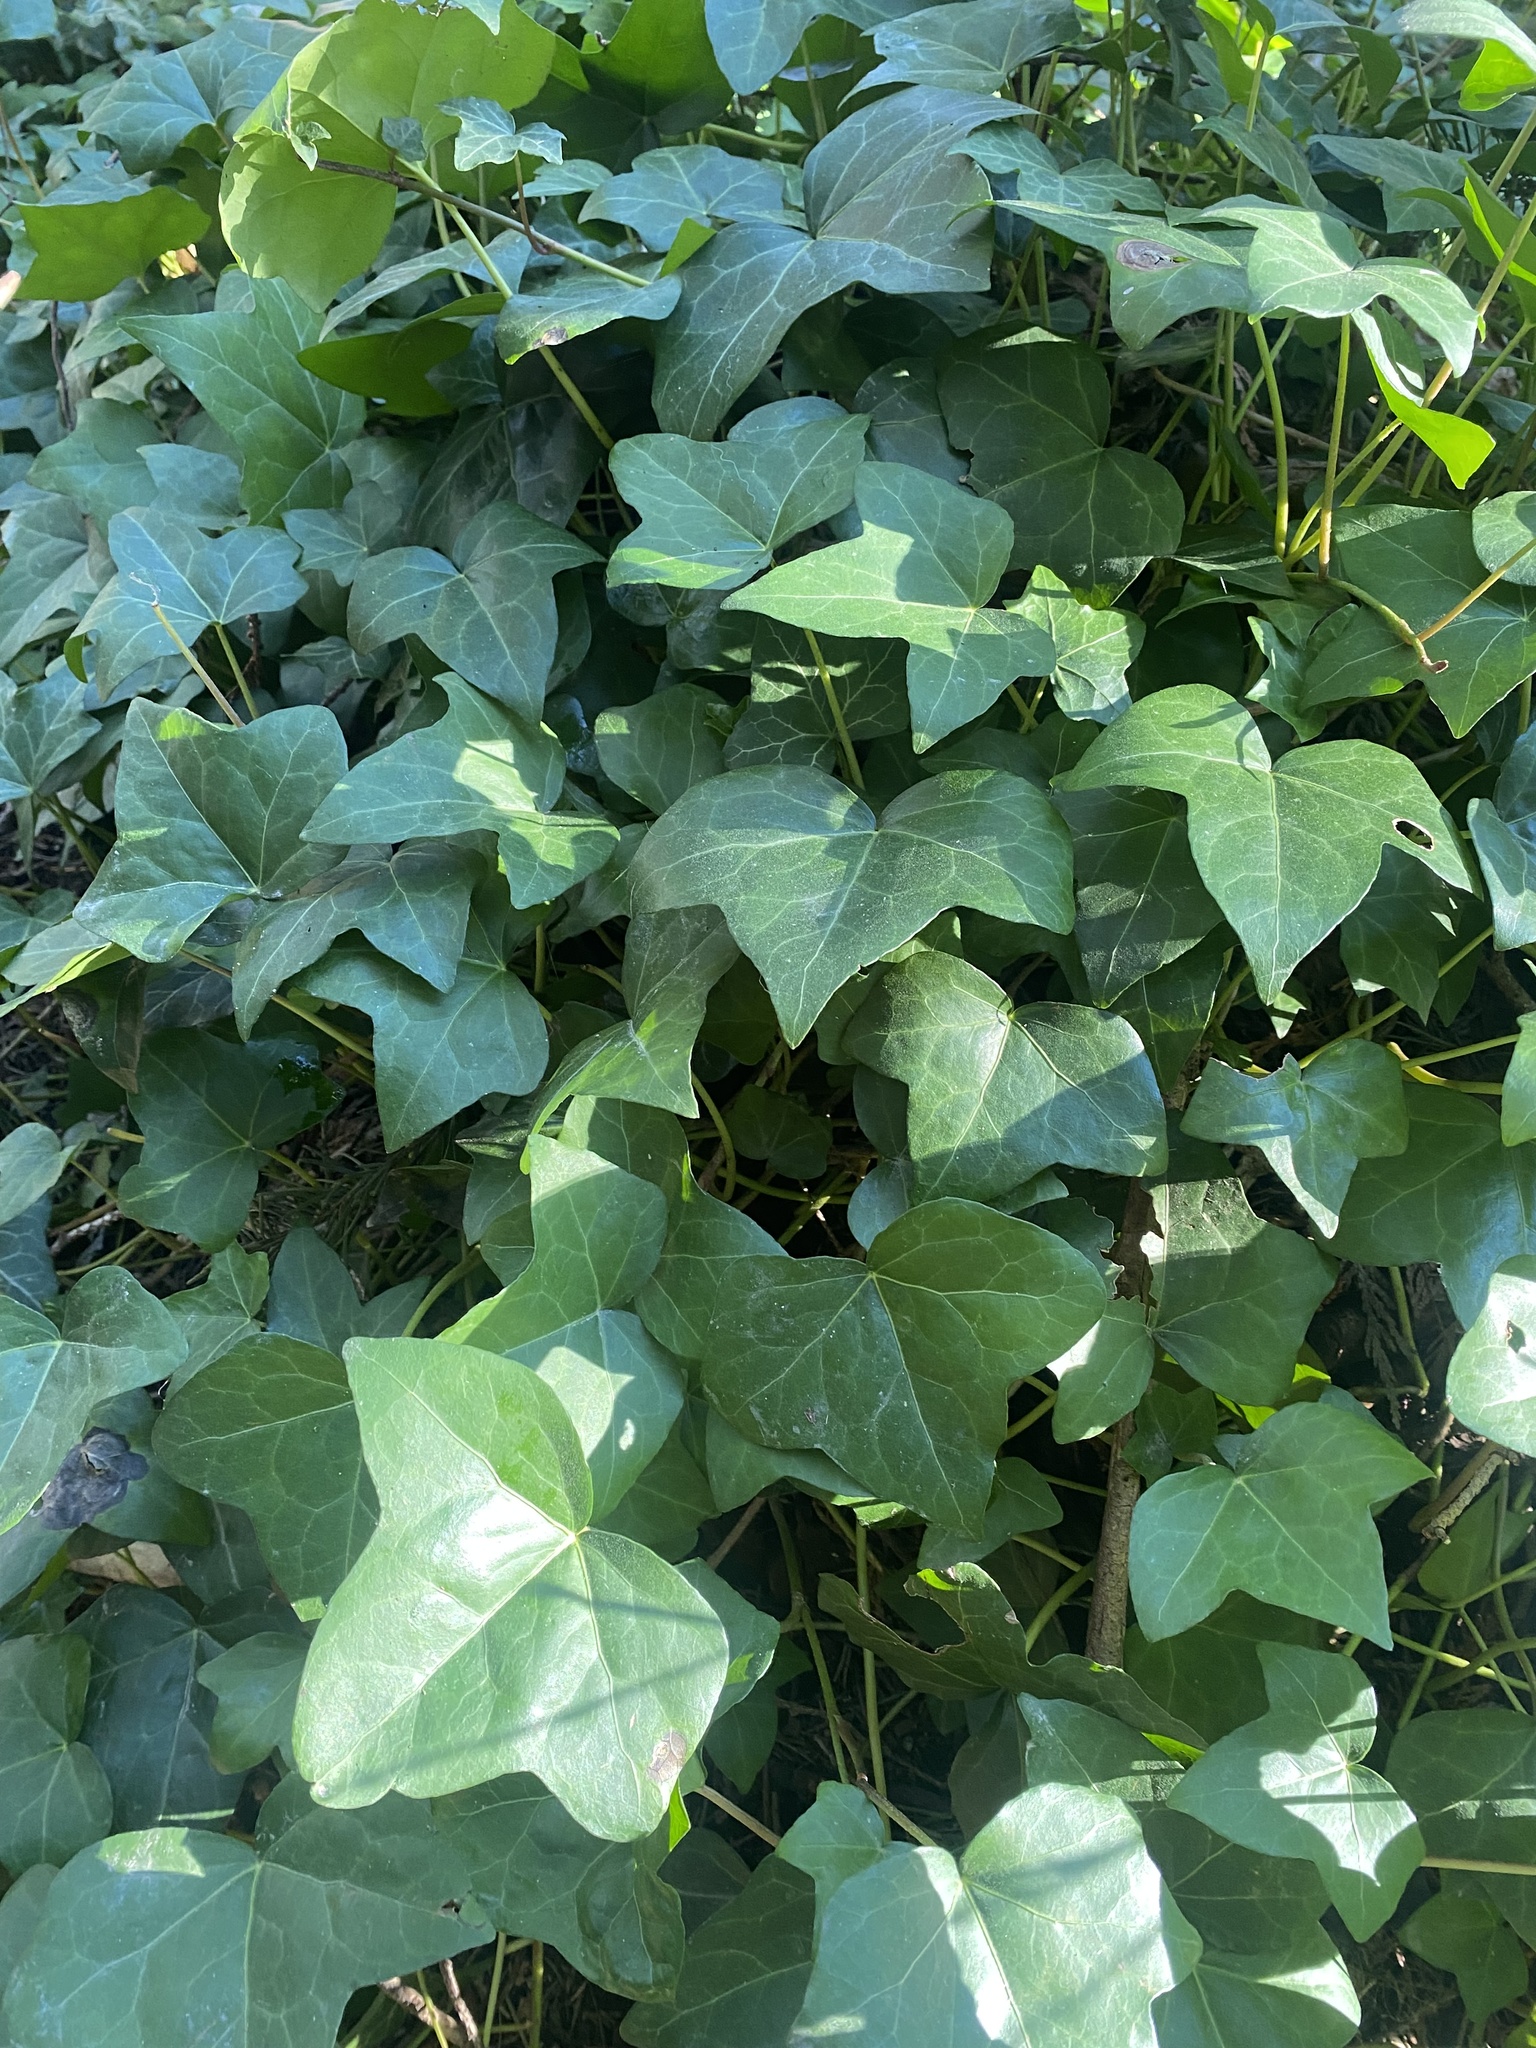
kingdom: Plantae
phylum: Tracheophyta
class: Magnoliopsida
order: Apiales
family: Araliaceae
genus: Hedera
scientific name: Hedera helix
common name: Ivy
